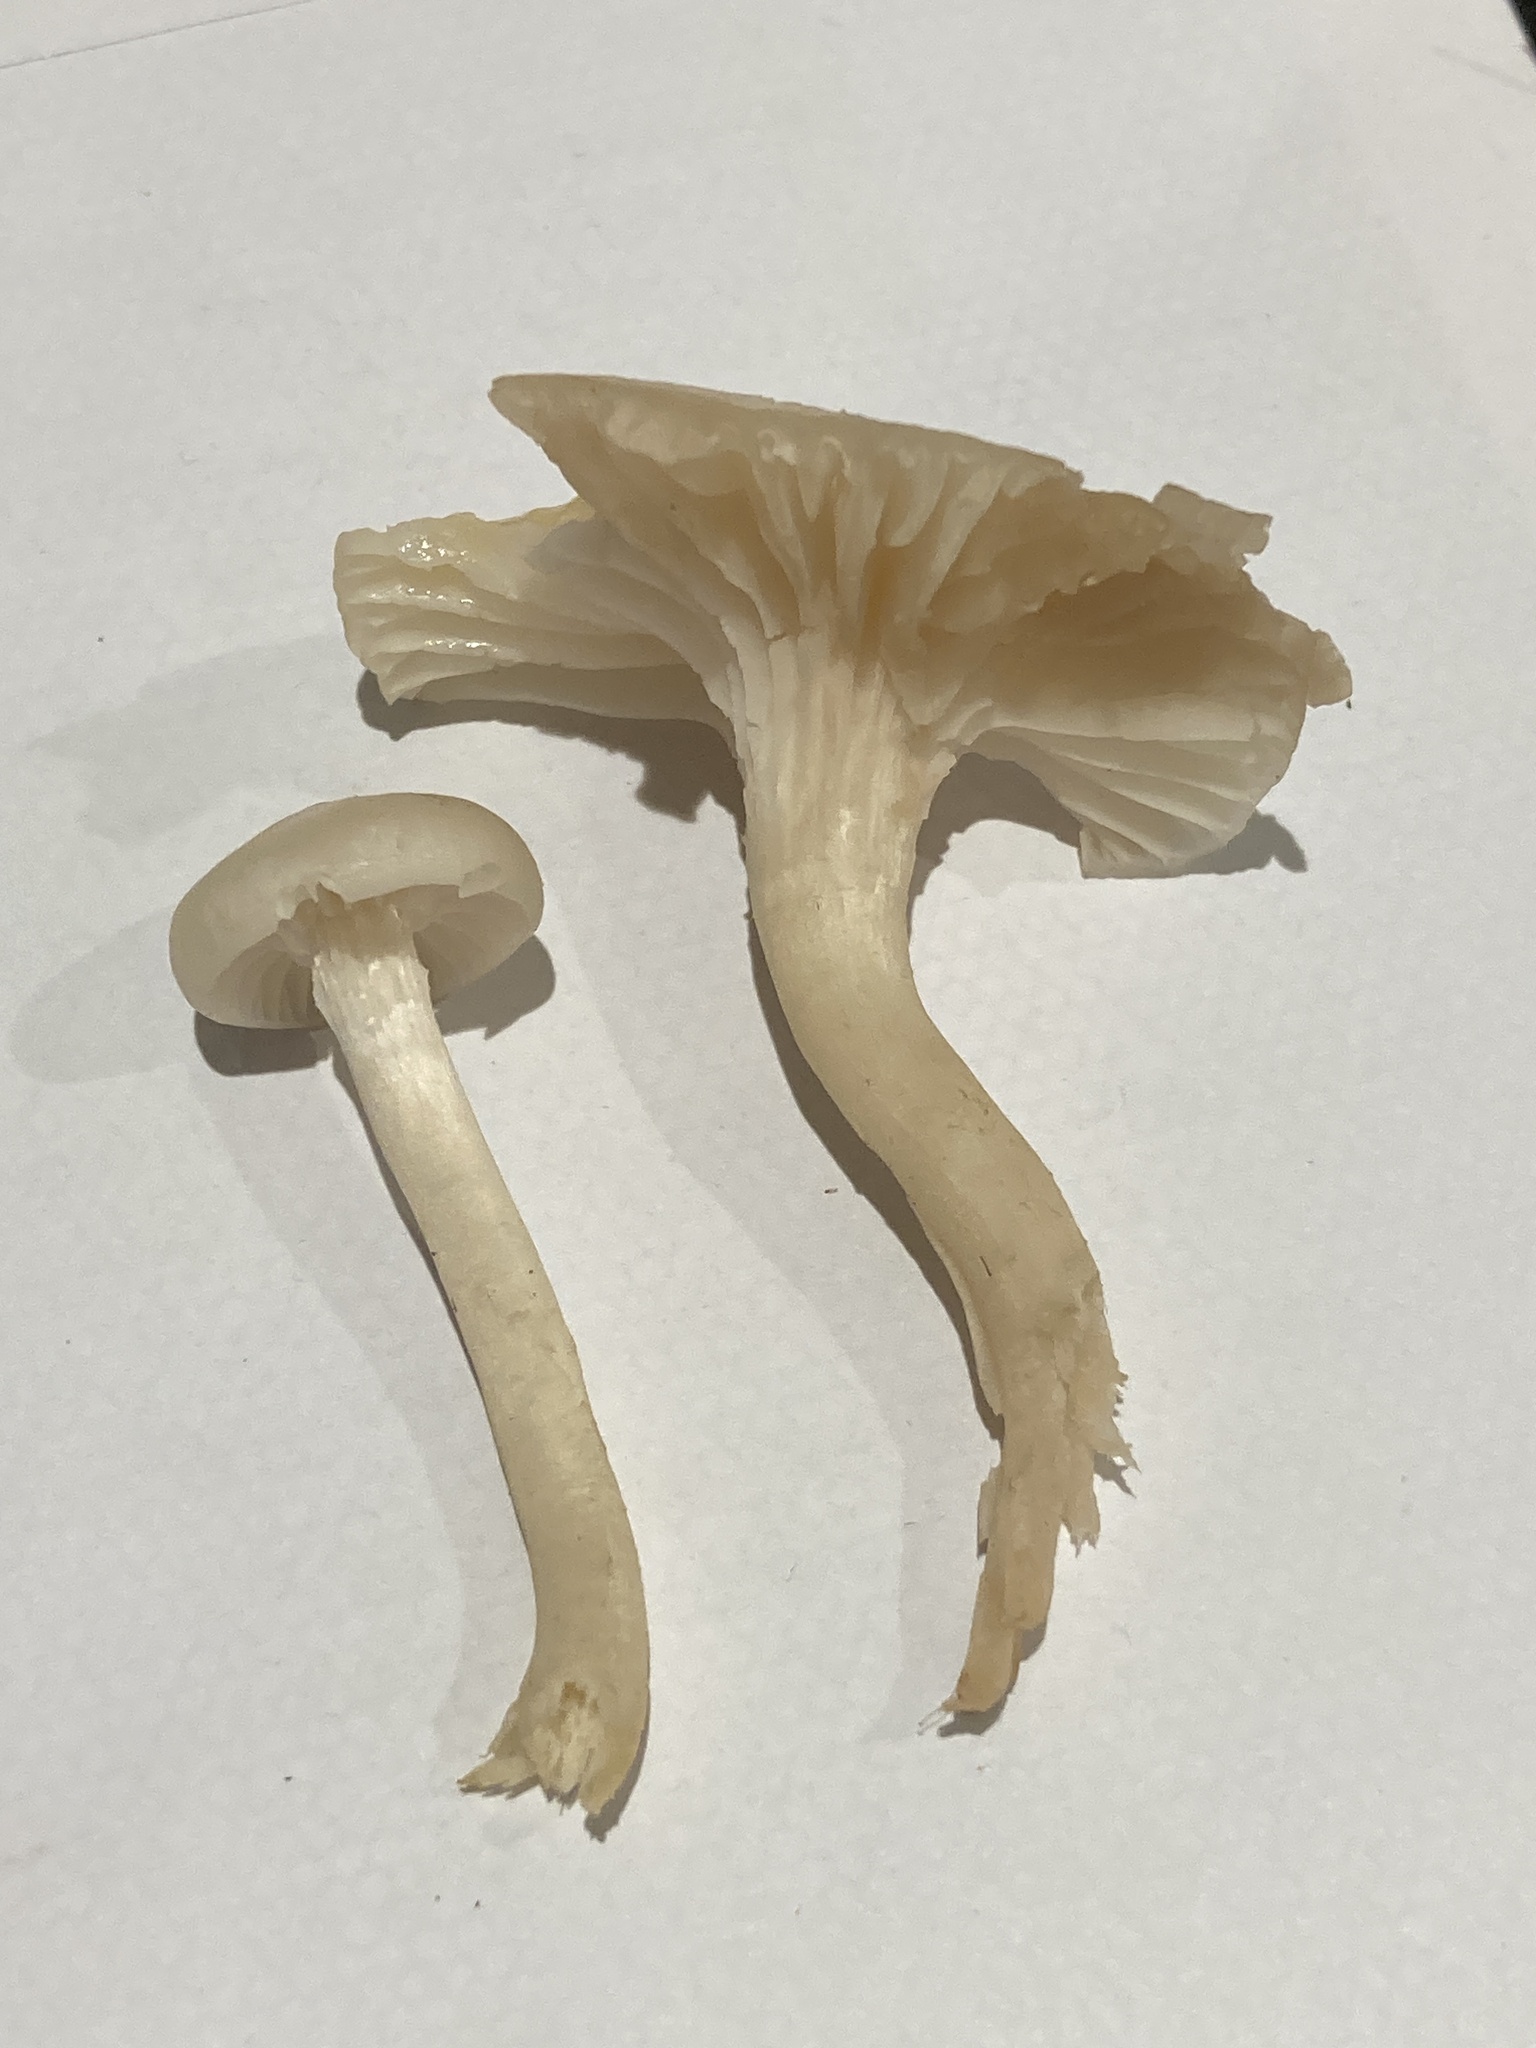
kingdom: Fungi
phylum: Basidiomycota
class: Agaricomycetes
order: Agaricales
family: Hygrophoraceae
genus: Cuphophyllus
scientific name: Cuphophyllus virgineus
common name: Snowy waxcap
